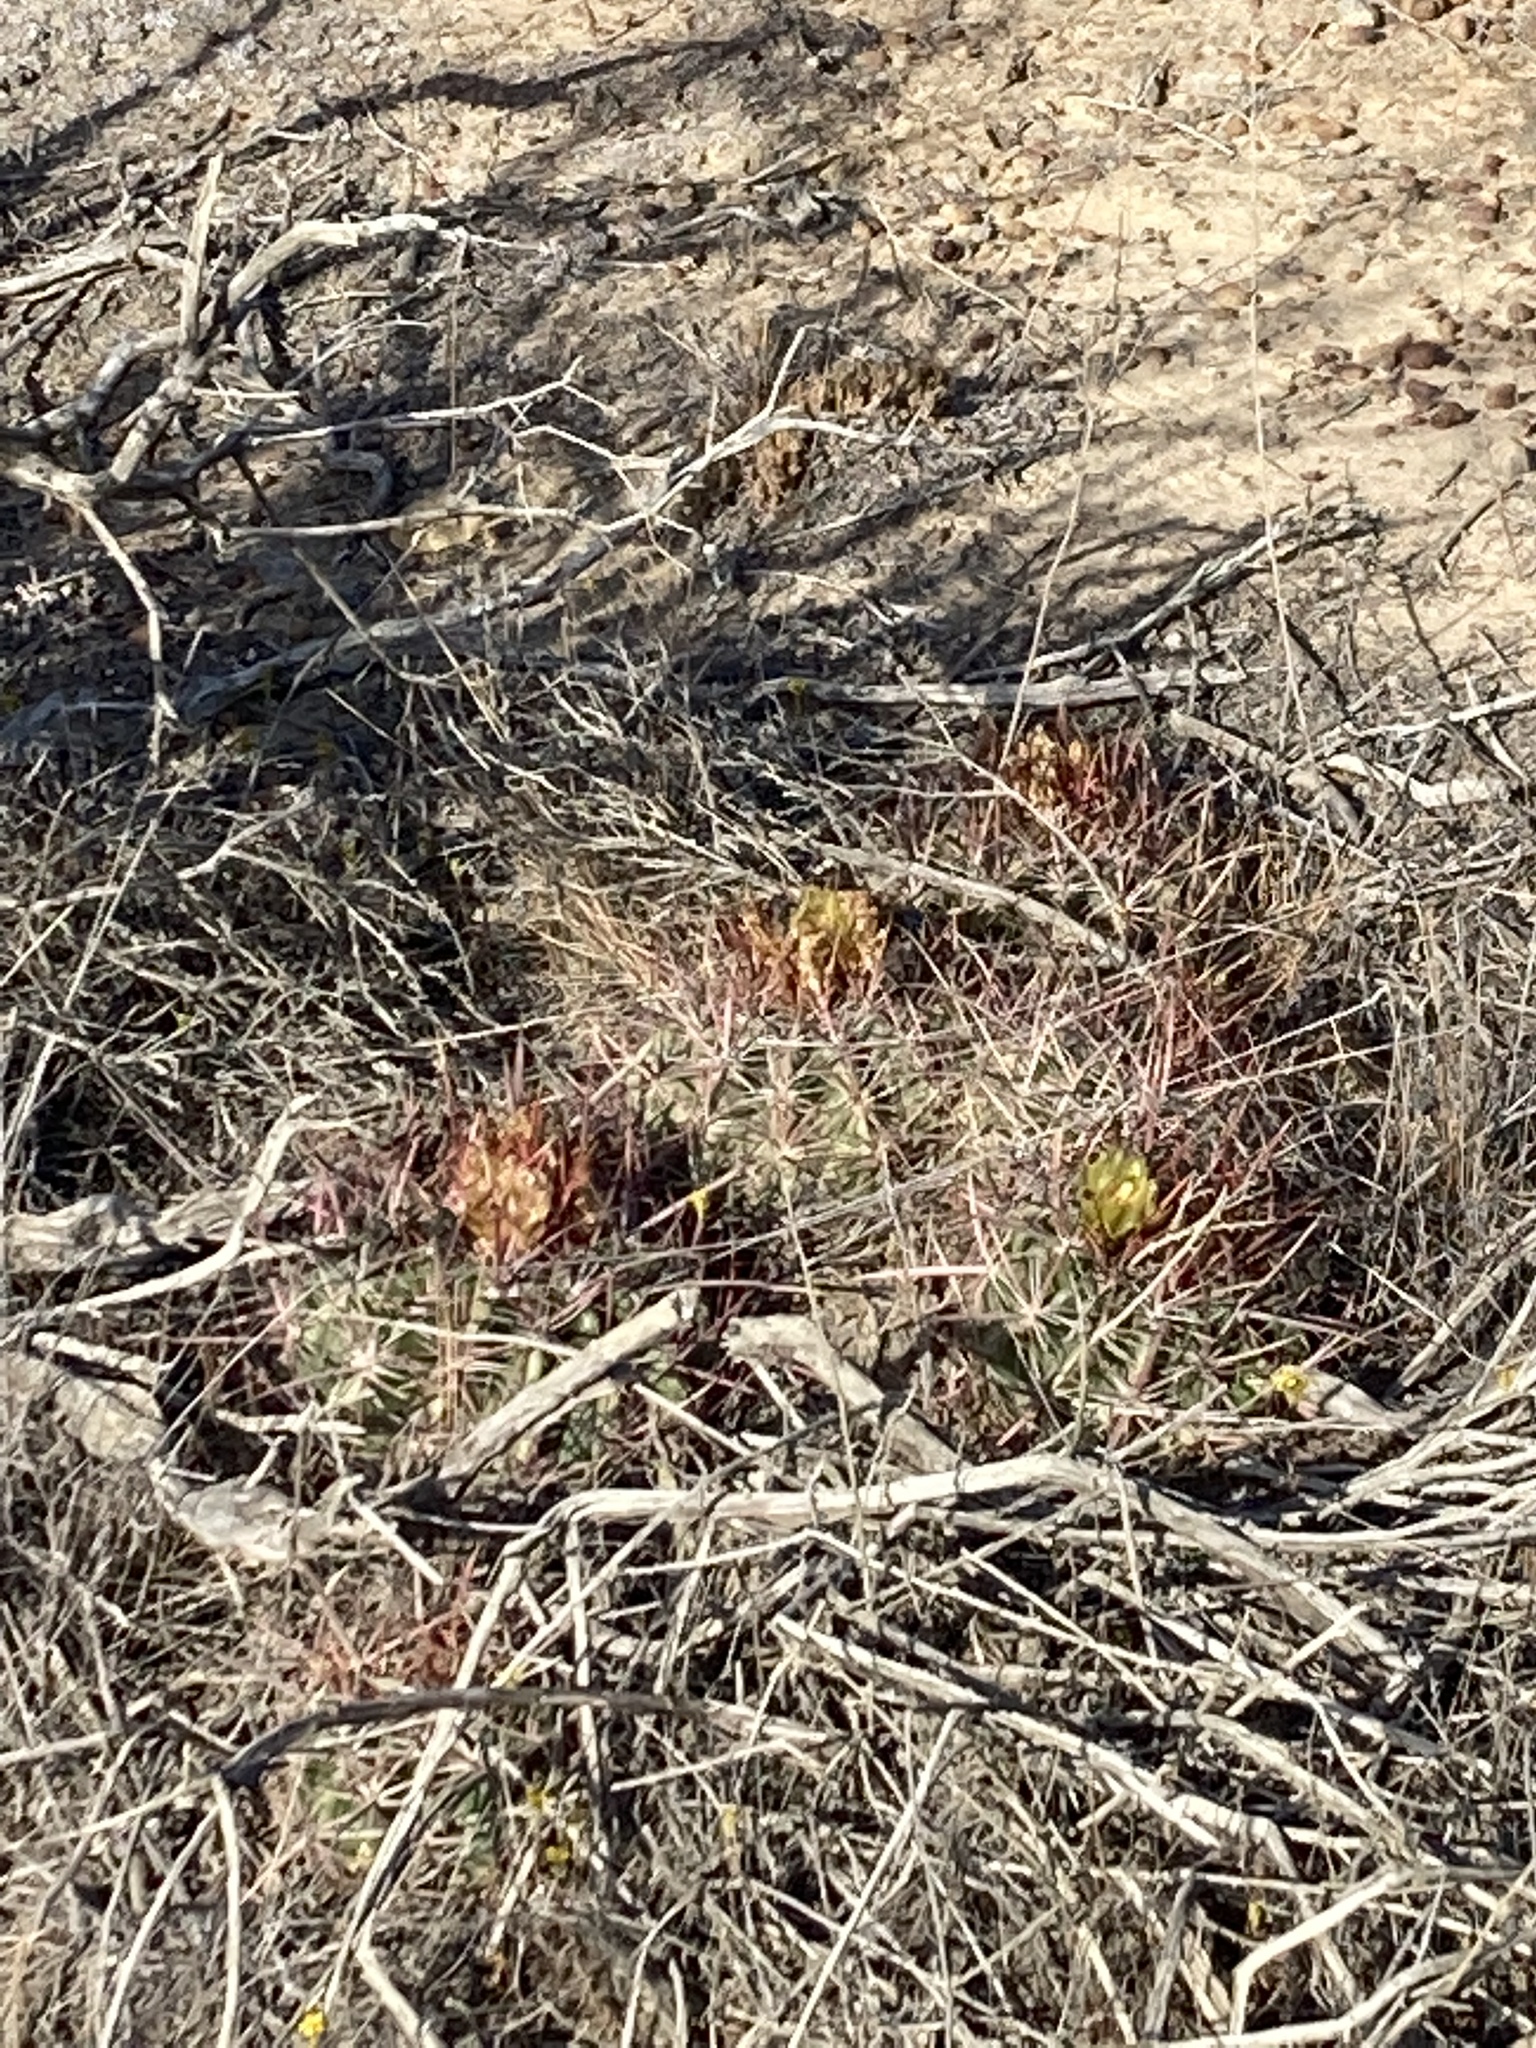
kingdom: Plantae
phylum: Tracheophyta
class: Magnoliopsida
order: Caryophyllales
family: Cactaceae
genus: Ferocactus
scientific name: Ferocactus viridescens
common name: San diego barrel cactus
